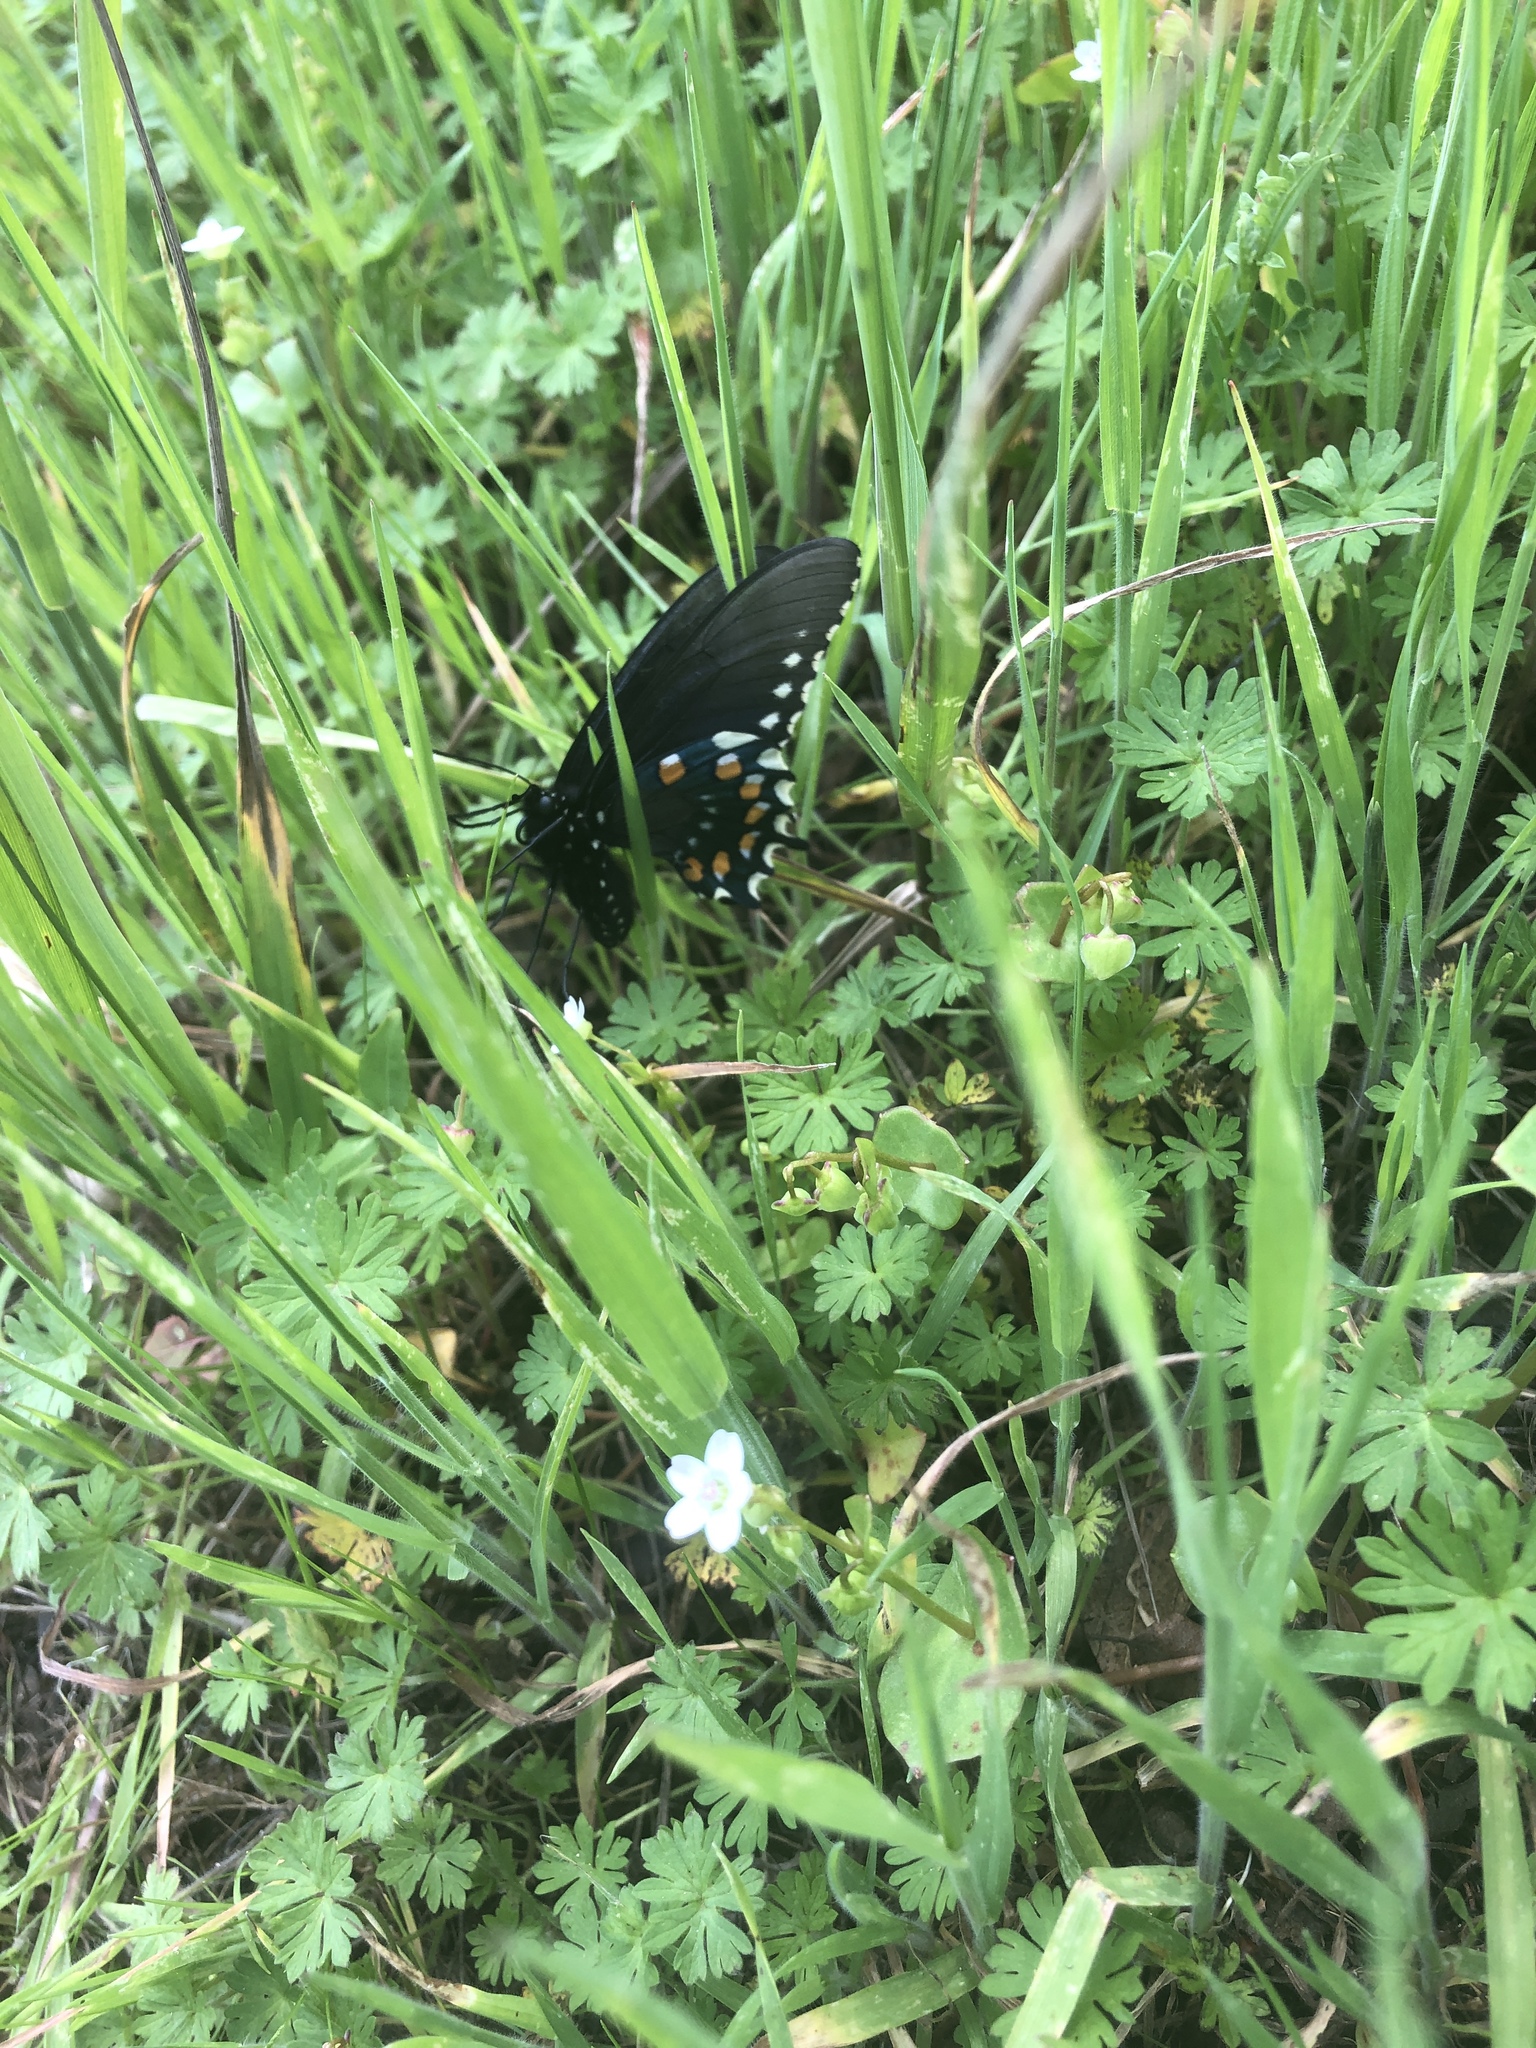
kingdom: Animalia
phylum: Arthropoda
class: Insecta
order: Lepidoptera
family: Papilionidae
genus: Battus
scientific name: Battus philenor
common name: Pipevine swallowtail
